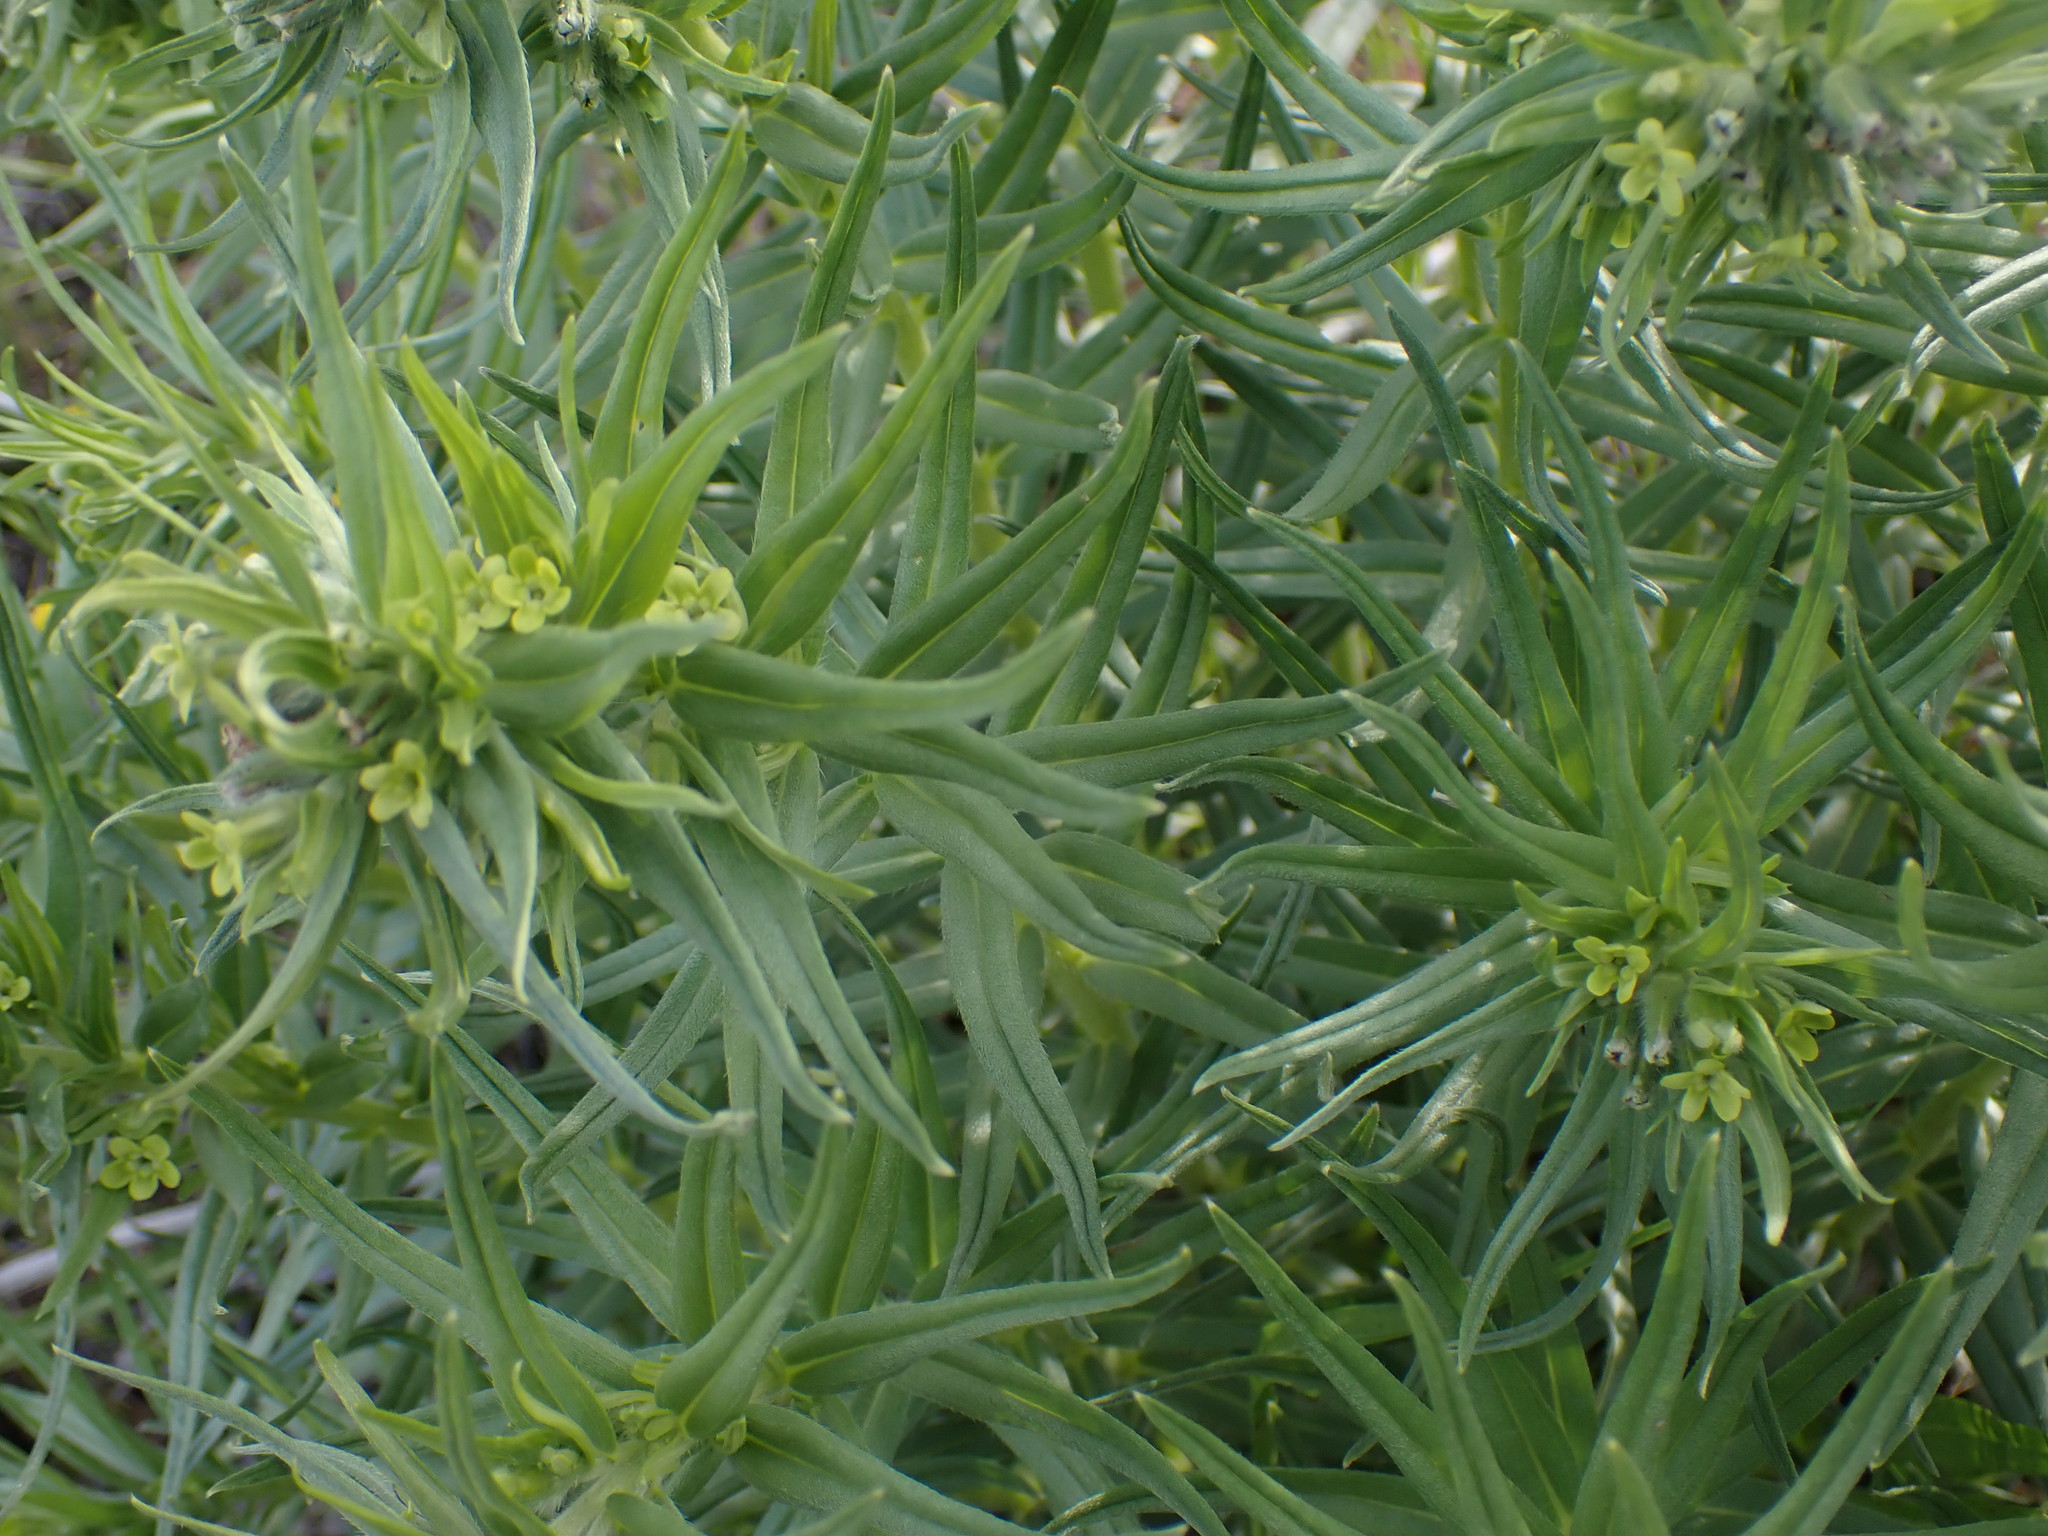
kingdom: Plantae
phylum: Tracheophyta
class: Magnoliopsida
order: Boraginales
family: Boraginaceae
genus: Lithospermum
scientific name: Lithospermum ruderale
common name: Western gromwell
